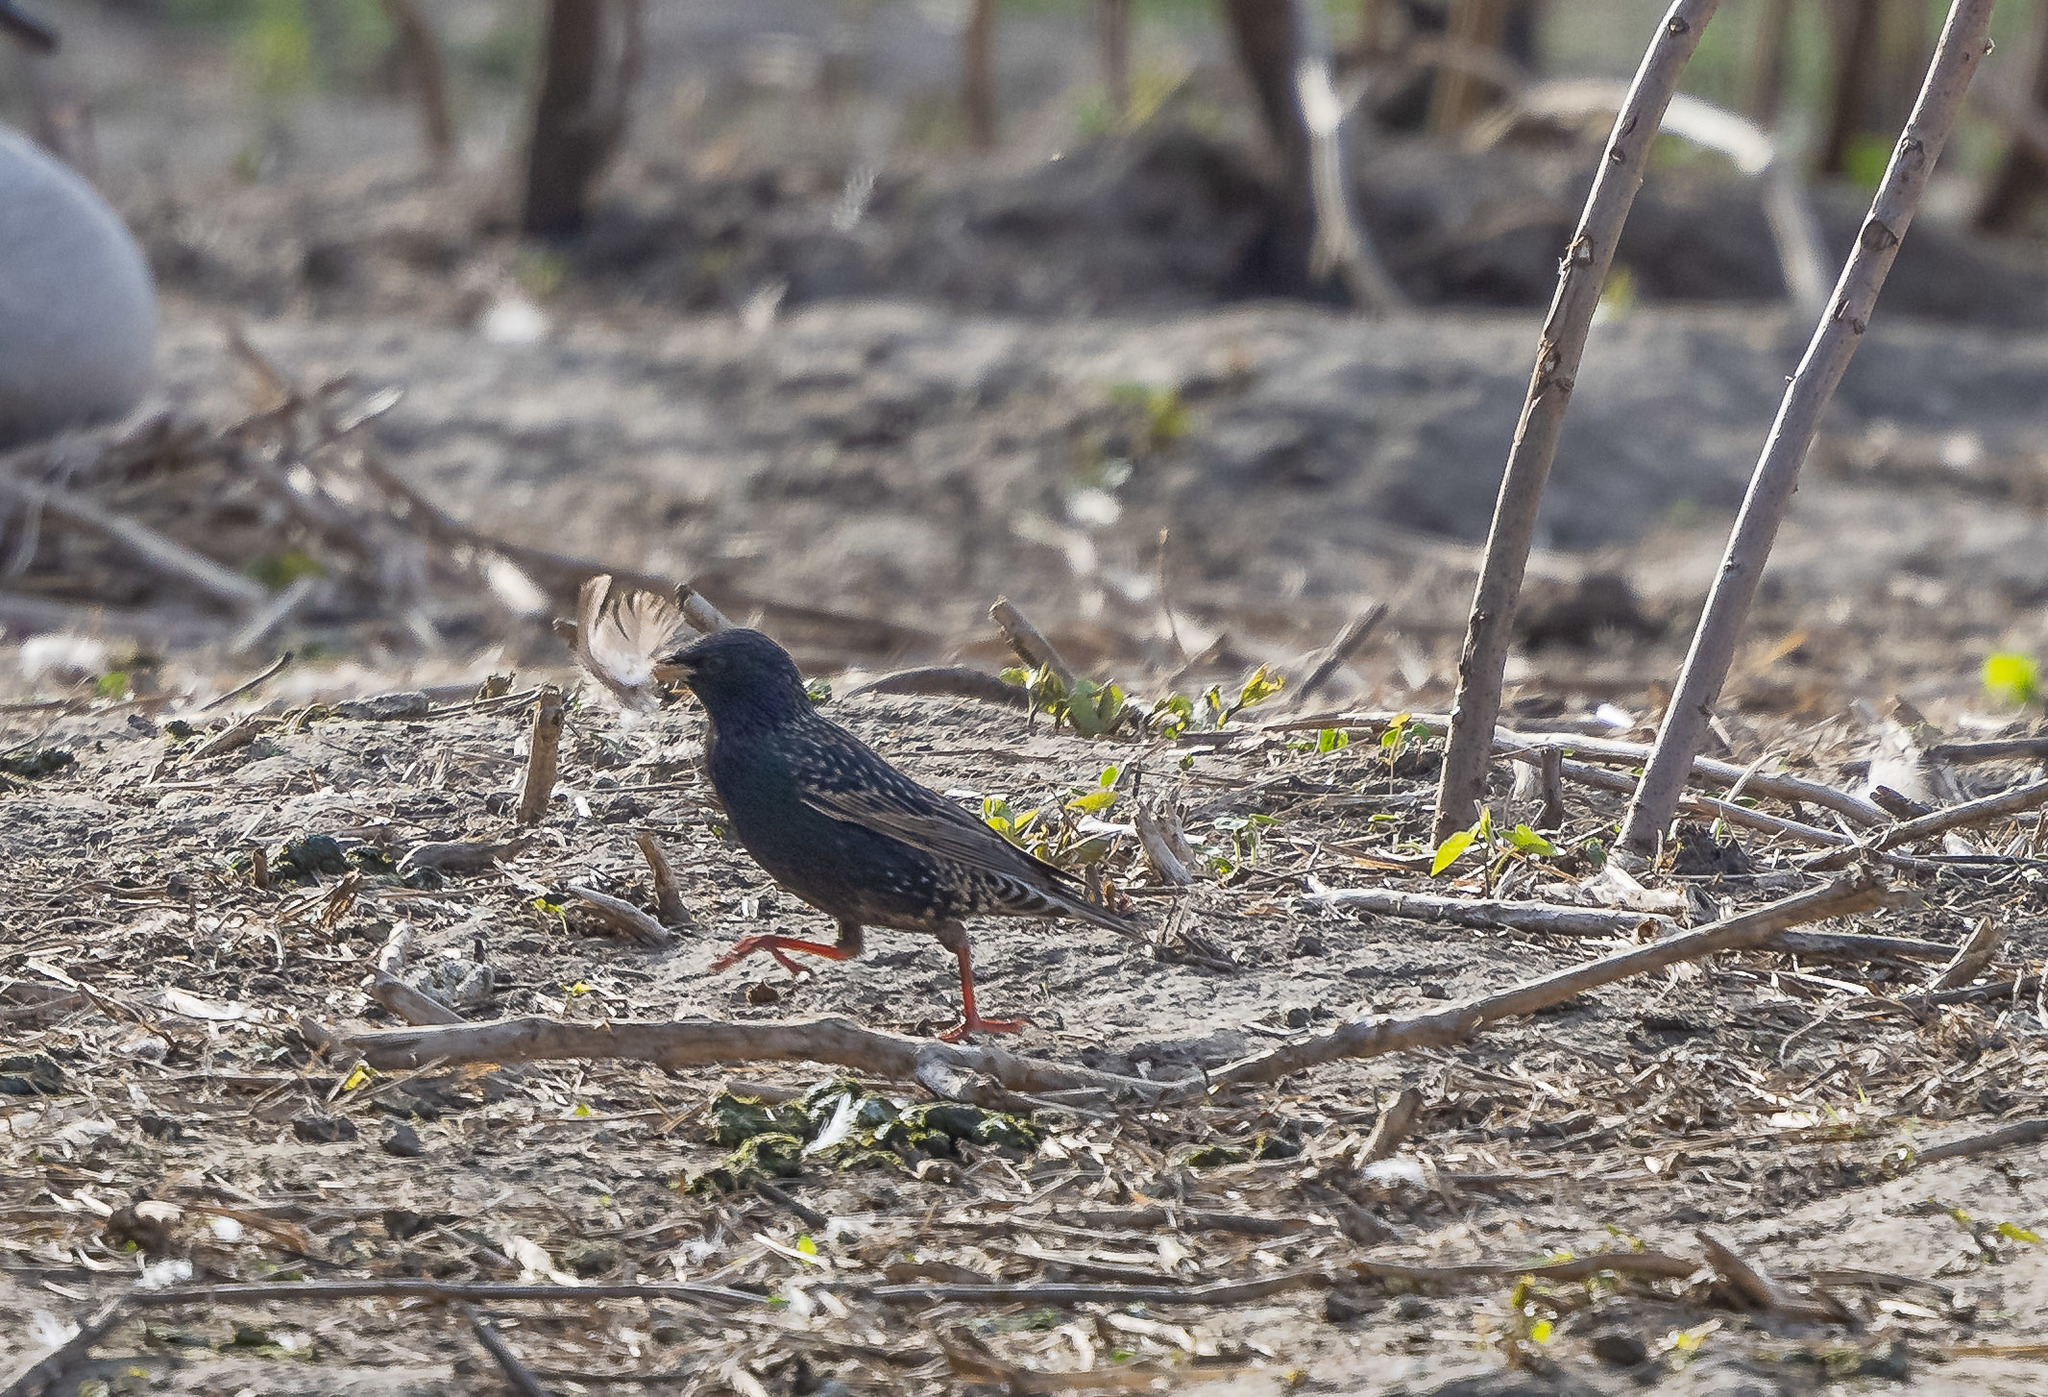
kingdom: Animalia
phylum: Chordata
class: Aves
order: Passeriformes
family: Sturnidae
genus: Sturnus
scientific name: Sturnus vulgaris
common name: Common starling
